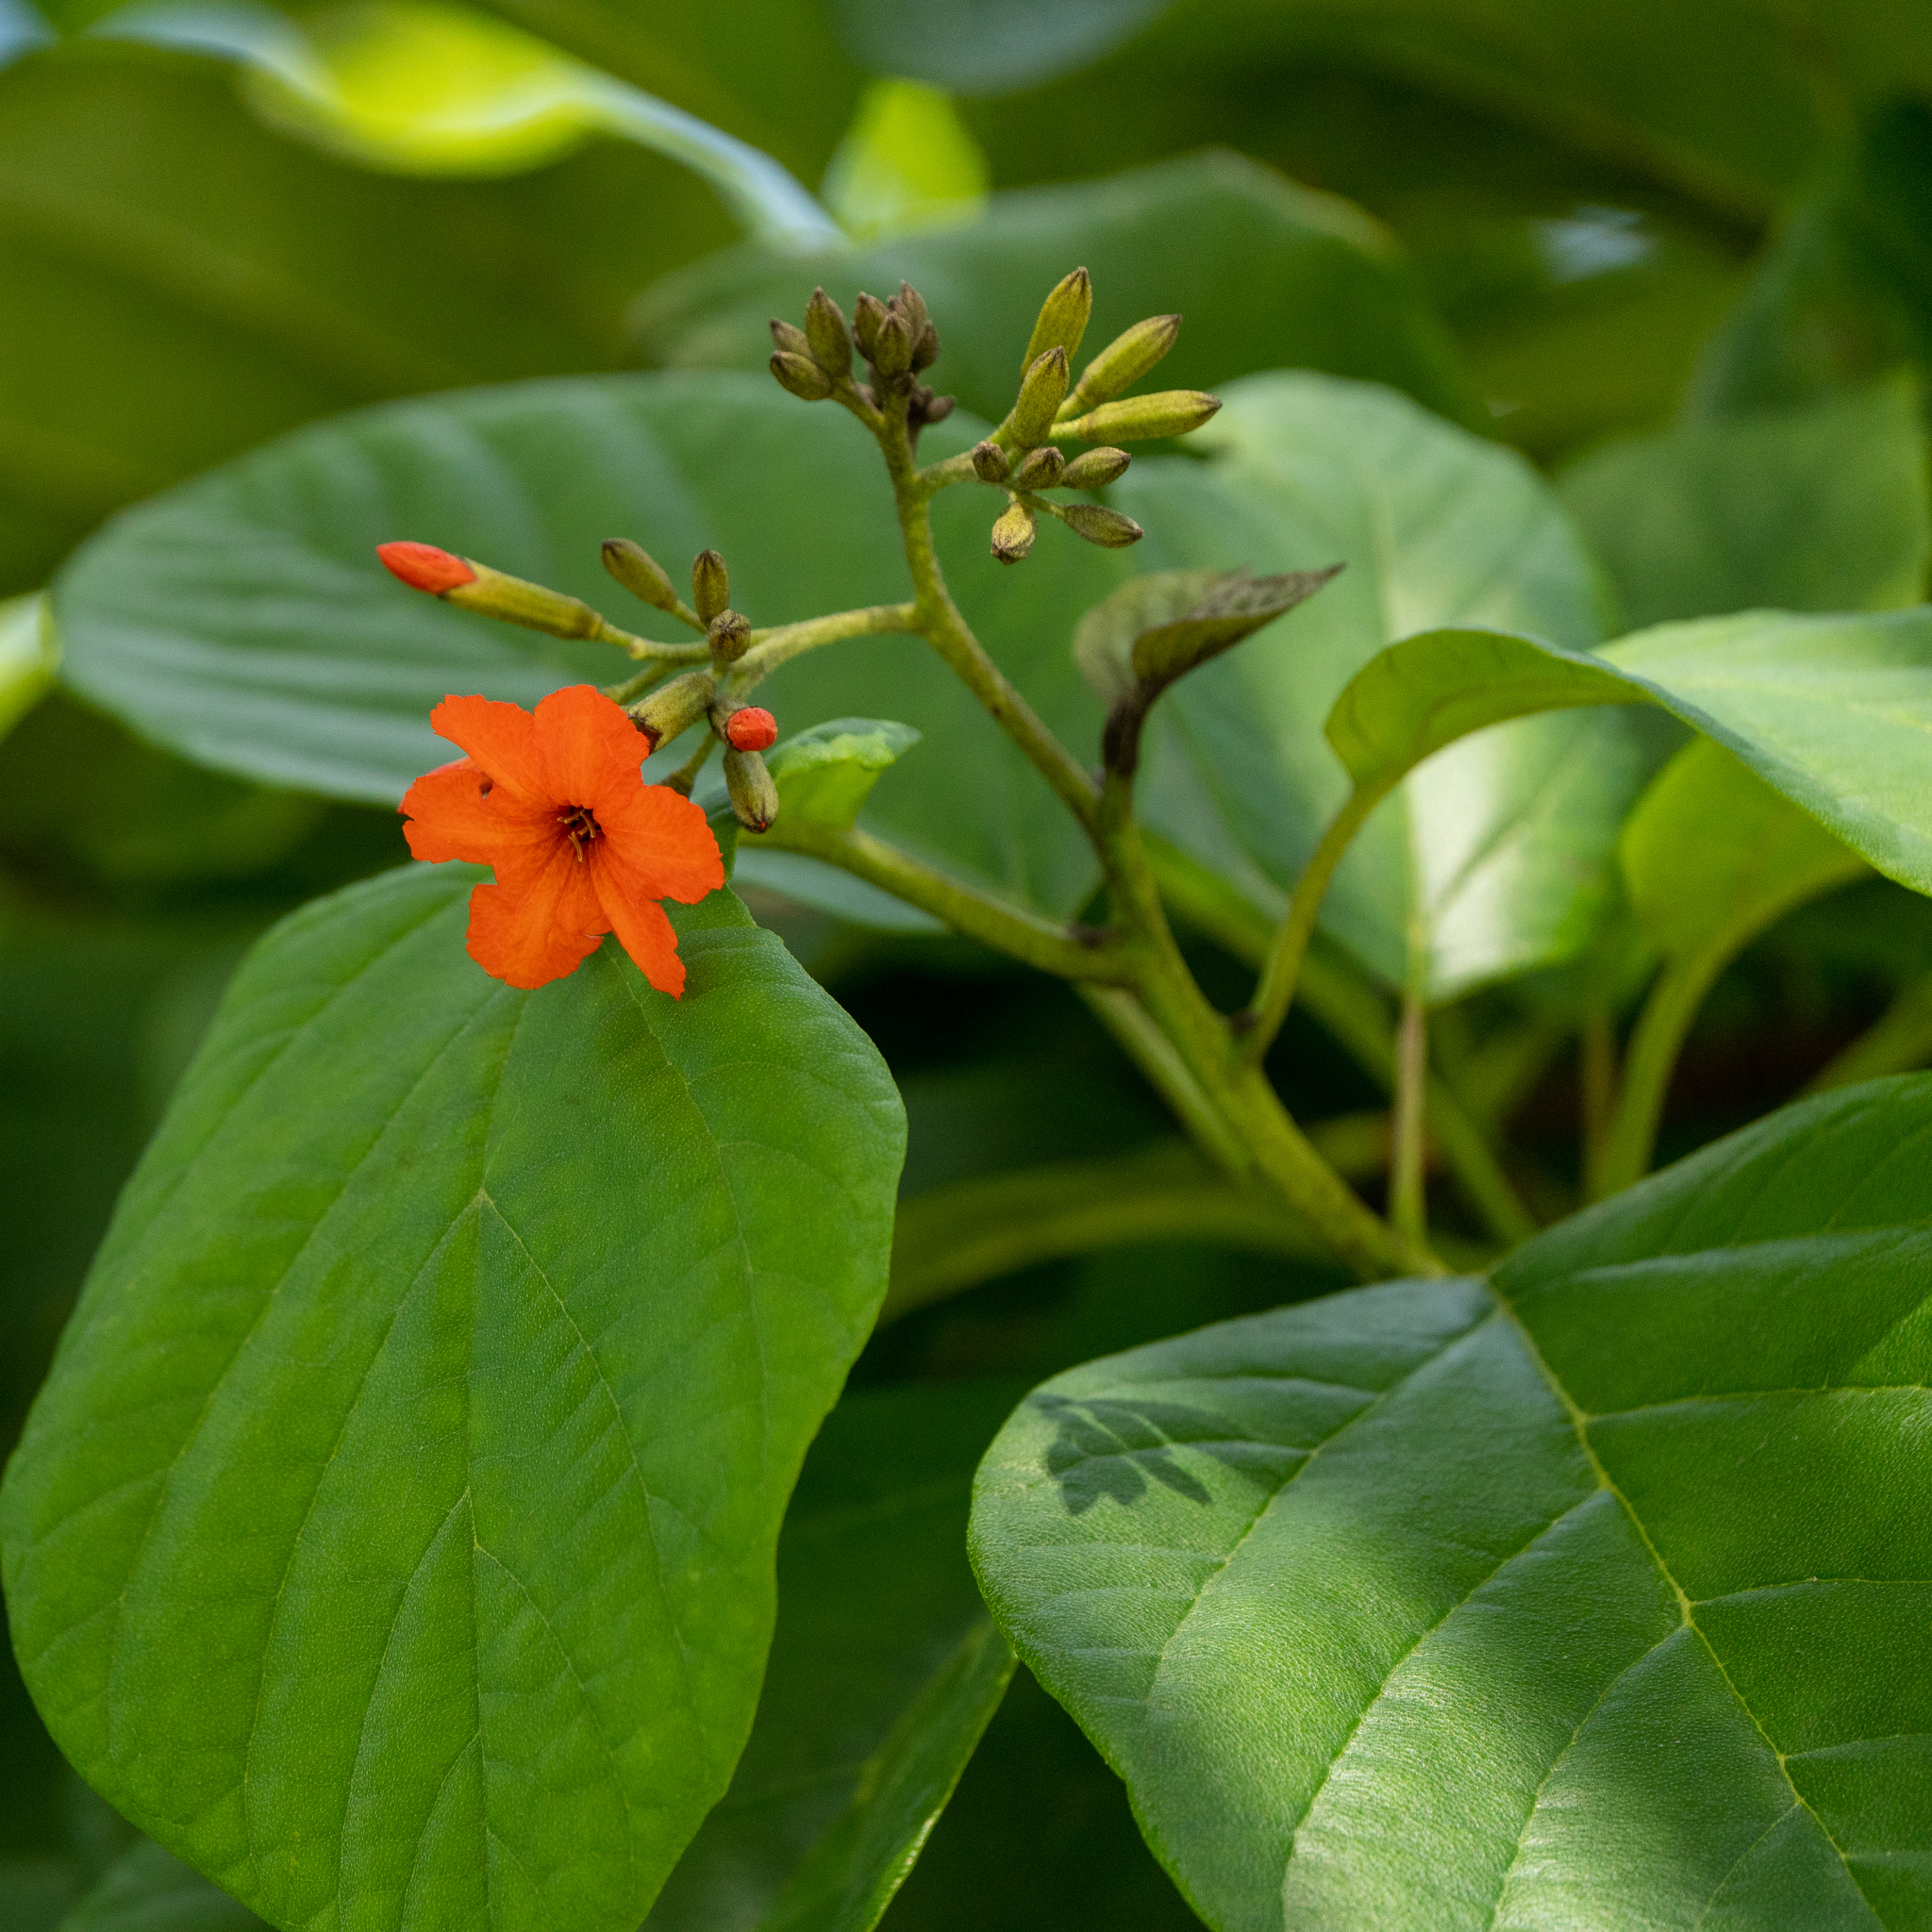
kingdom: Plantae
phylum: Tracheophyta
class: Magnoliopsida
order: Boraginales
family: Cordiaceae
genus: Cordia
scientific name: Cordia sebestena
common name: Largeleaf geigertree
